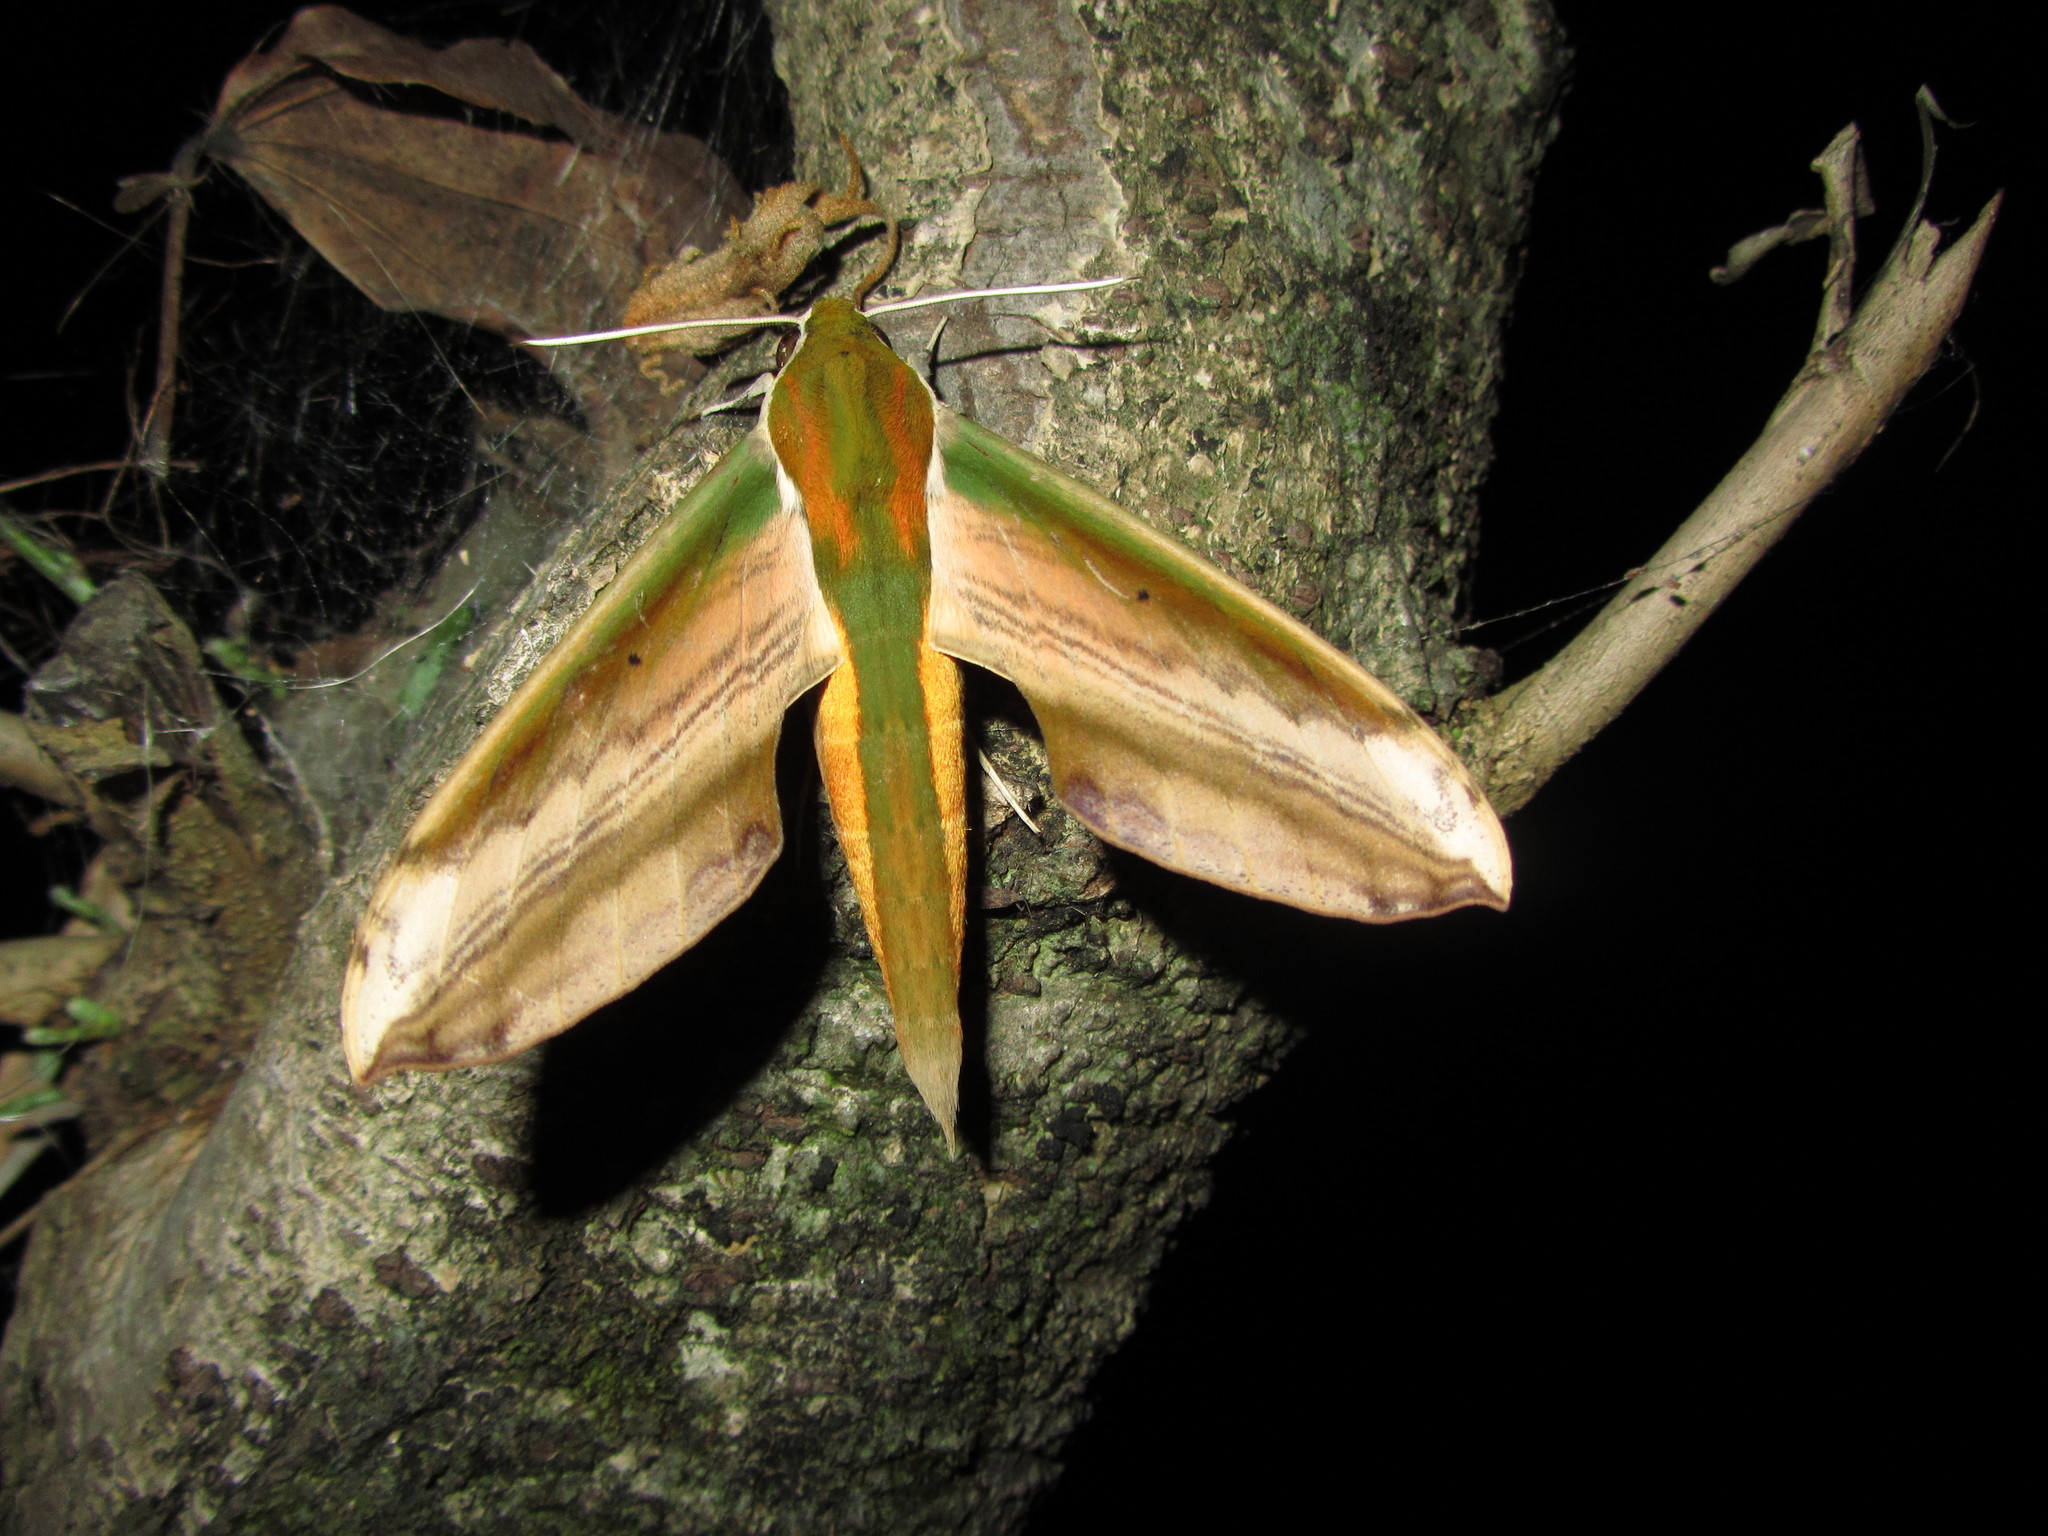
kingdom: Animalia
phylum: Arthropoda
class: Insecta
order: Lepidoptera
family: Sphingidae
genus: Theretra
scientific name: Theretra nessus
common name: Yam hawk moth
